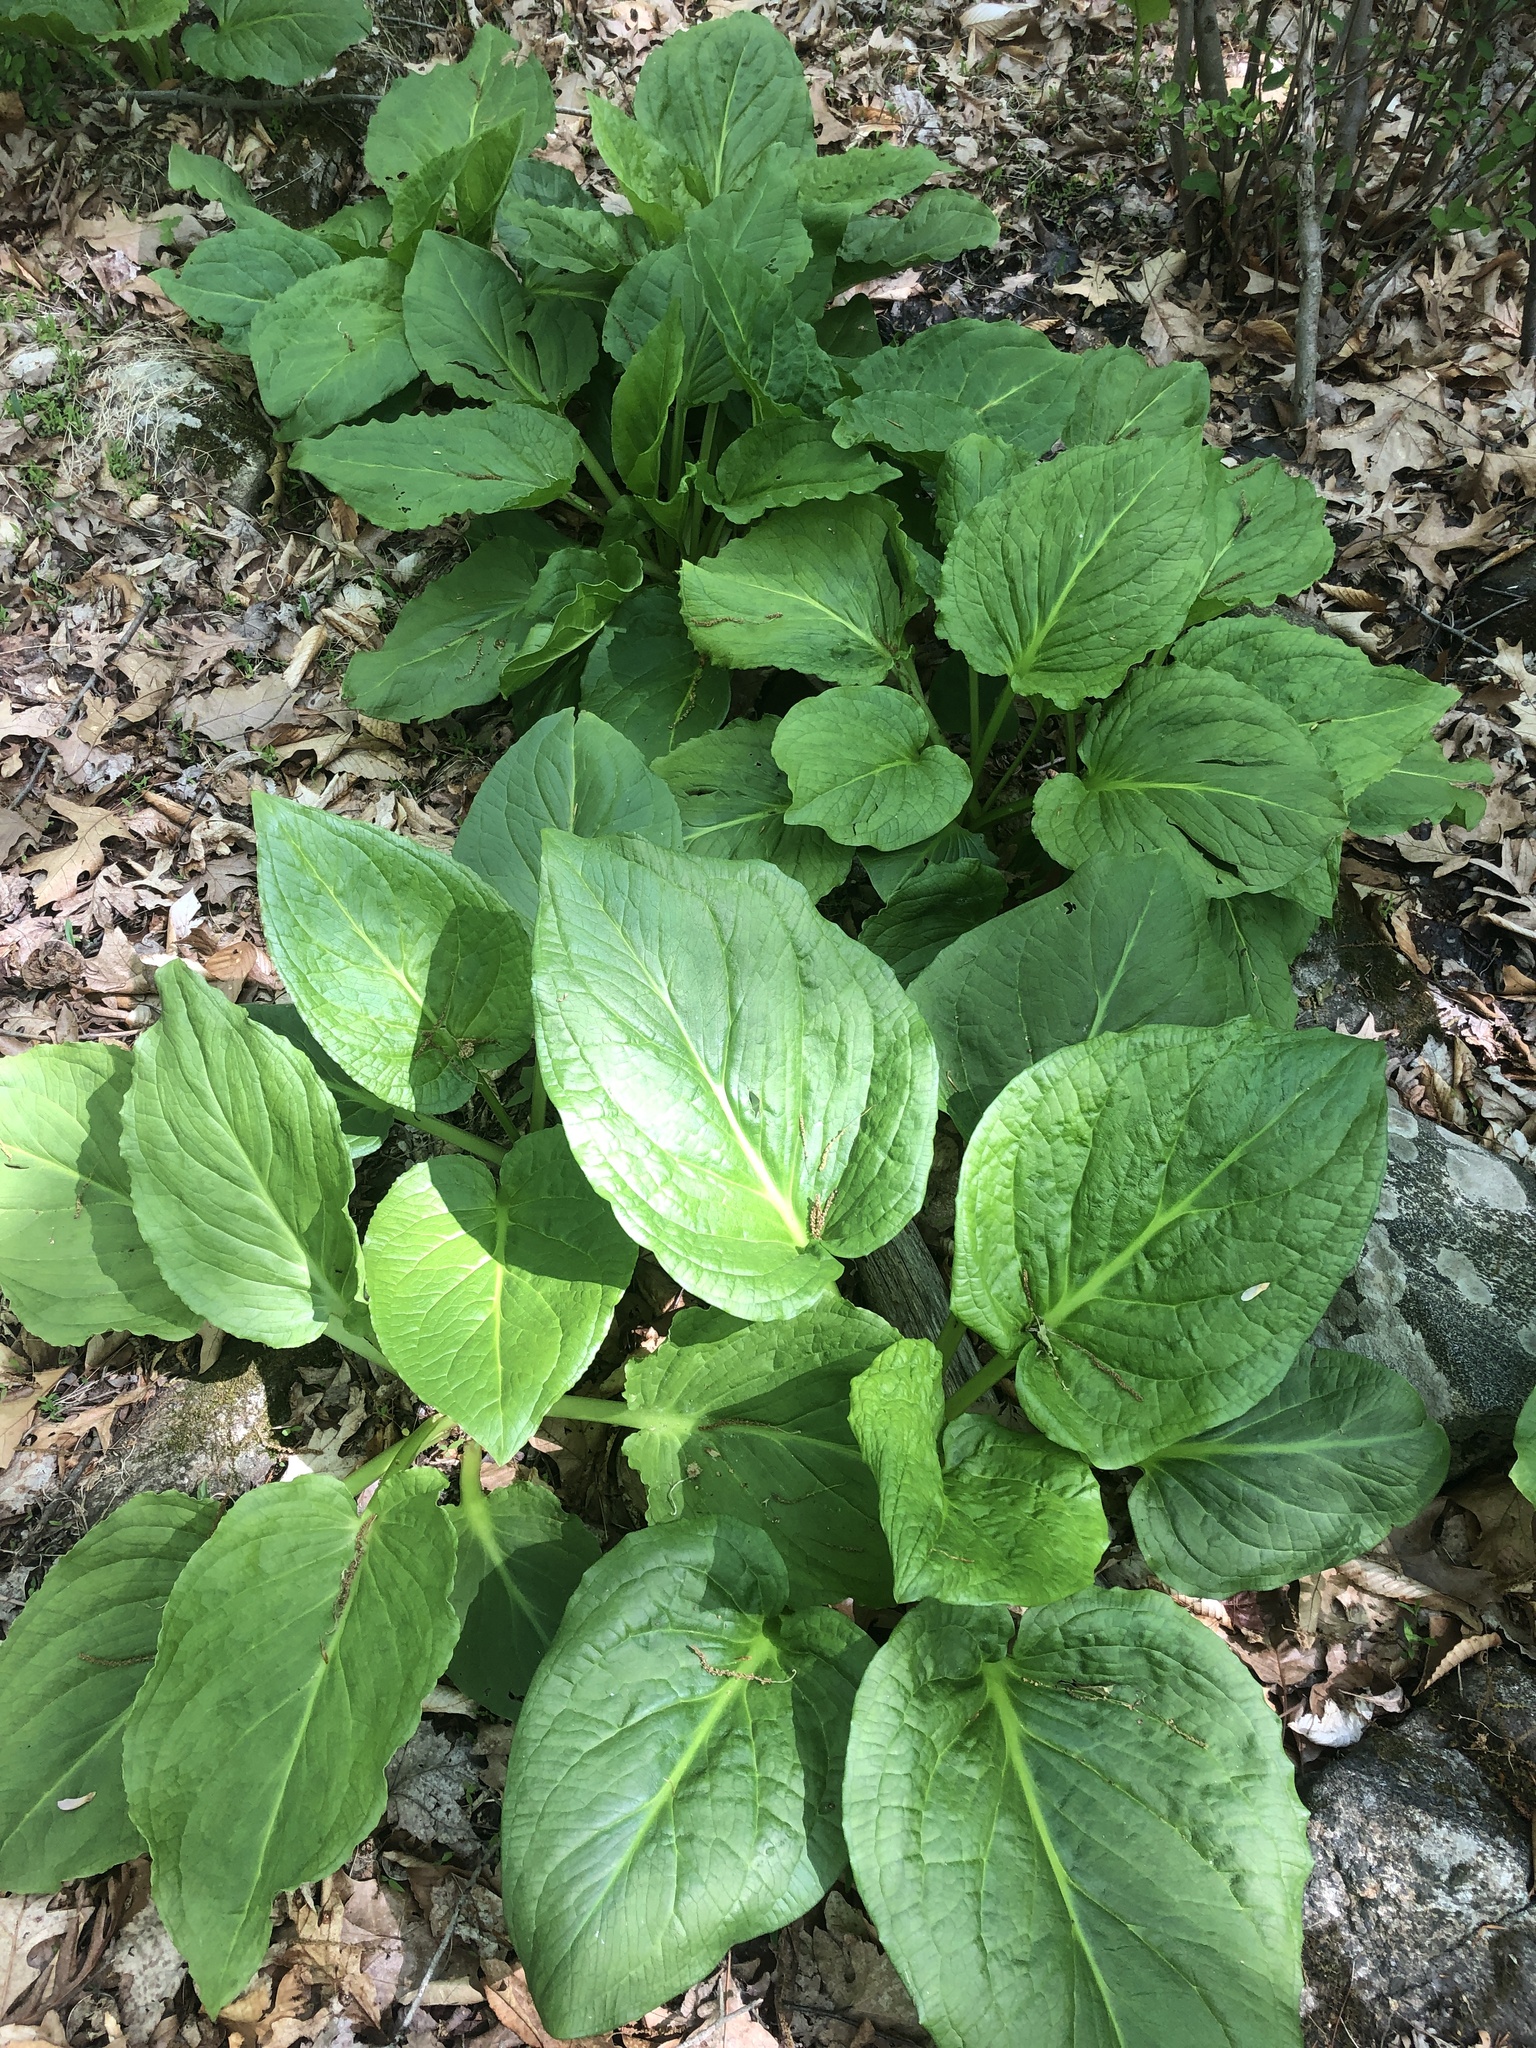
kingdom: Plantae
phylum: Tracheophyta
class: Liliopsida
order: Alismatales
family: Araceae
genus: Symplocarpus
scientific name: Symplocarpus foetidus
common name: Eastern skunk cabbage
